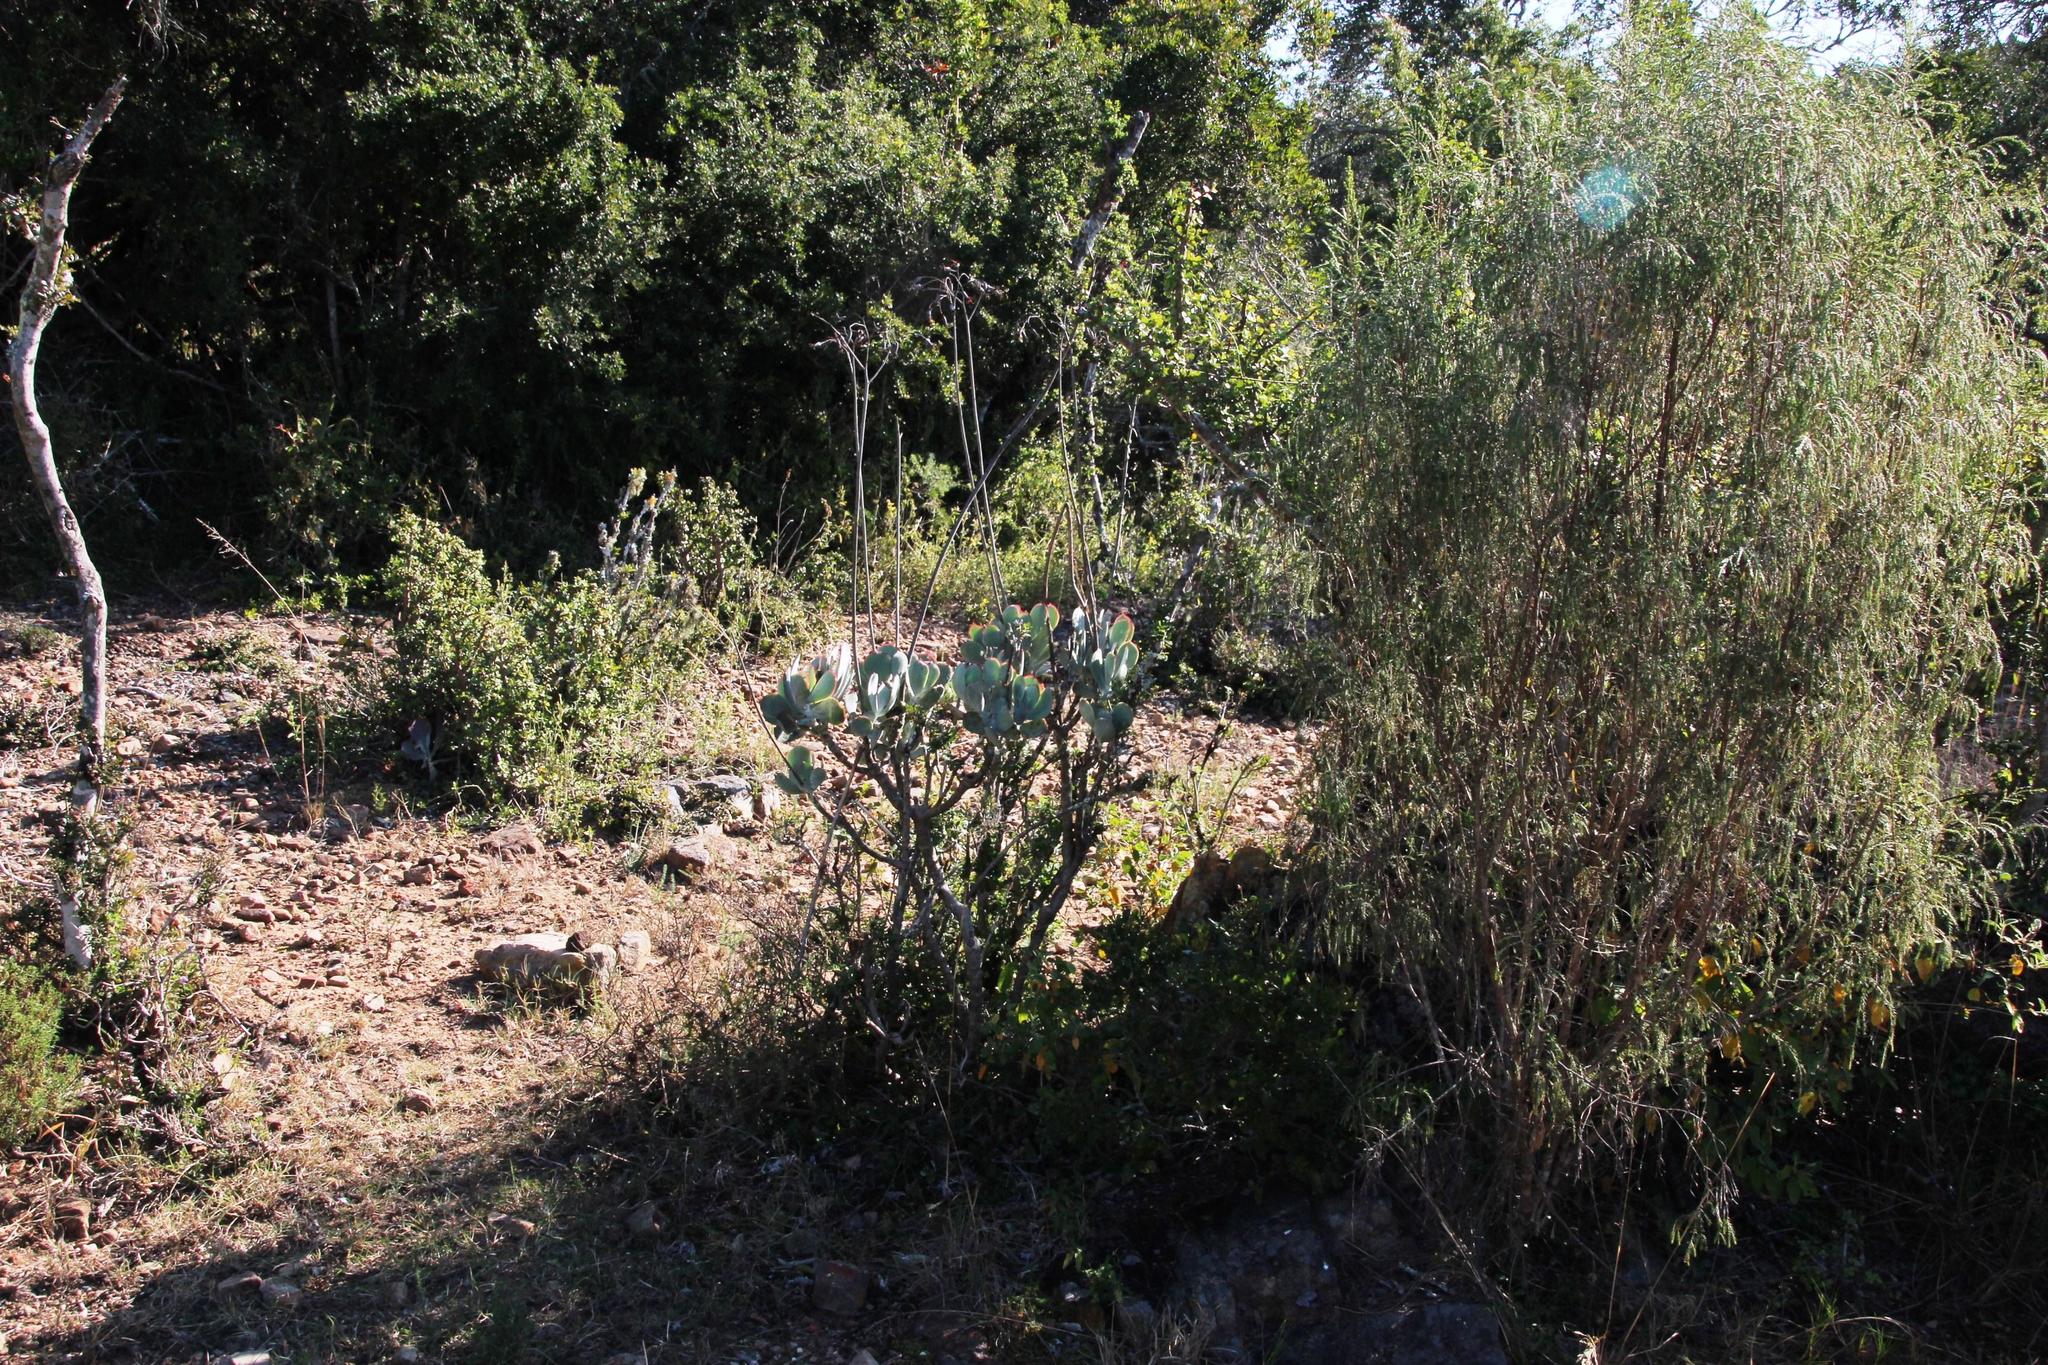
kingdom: Plantae
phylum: Tracheophyta
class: Magnoliopsida
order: Saxifragales
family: Crassulaceae
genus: Cotyledon
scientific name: Cotyledon velutina
